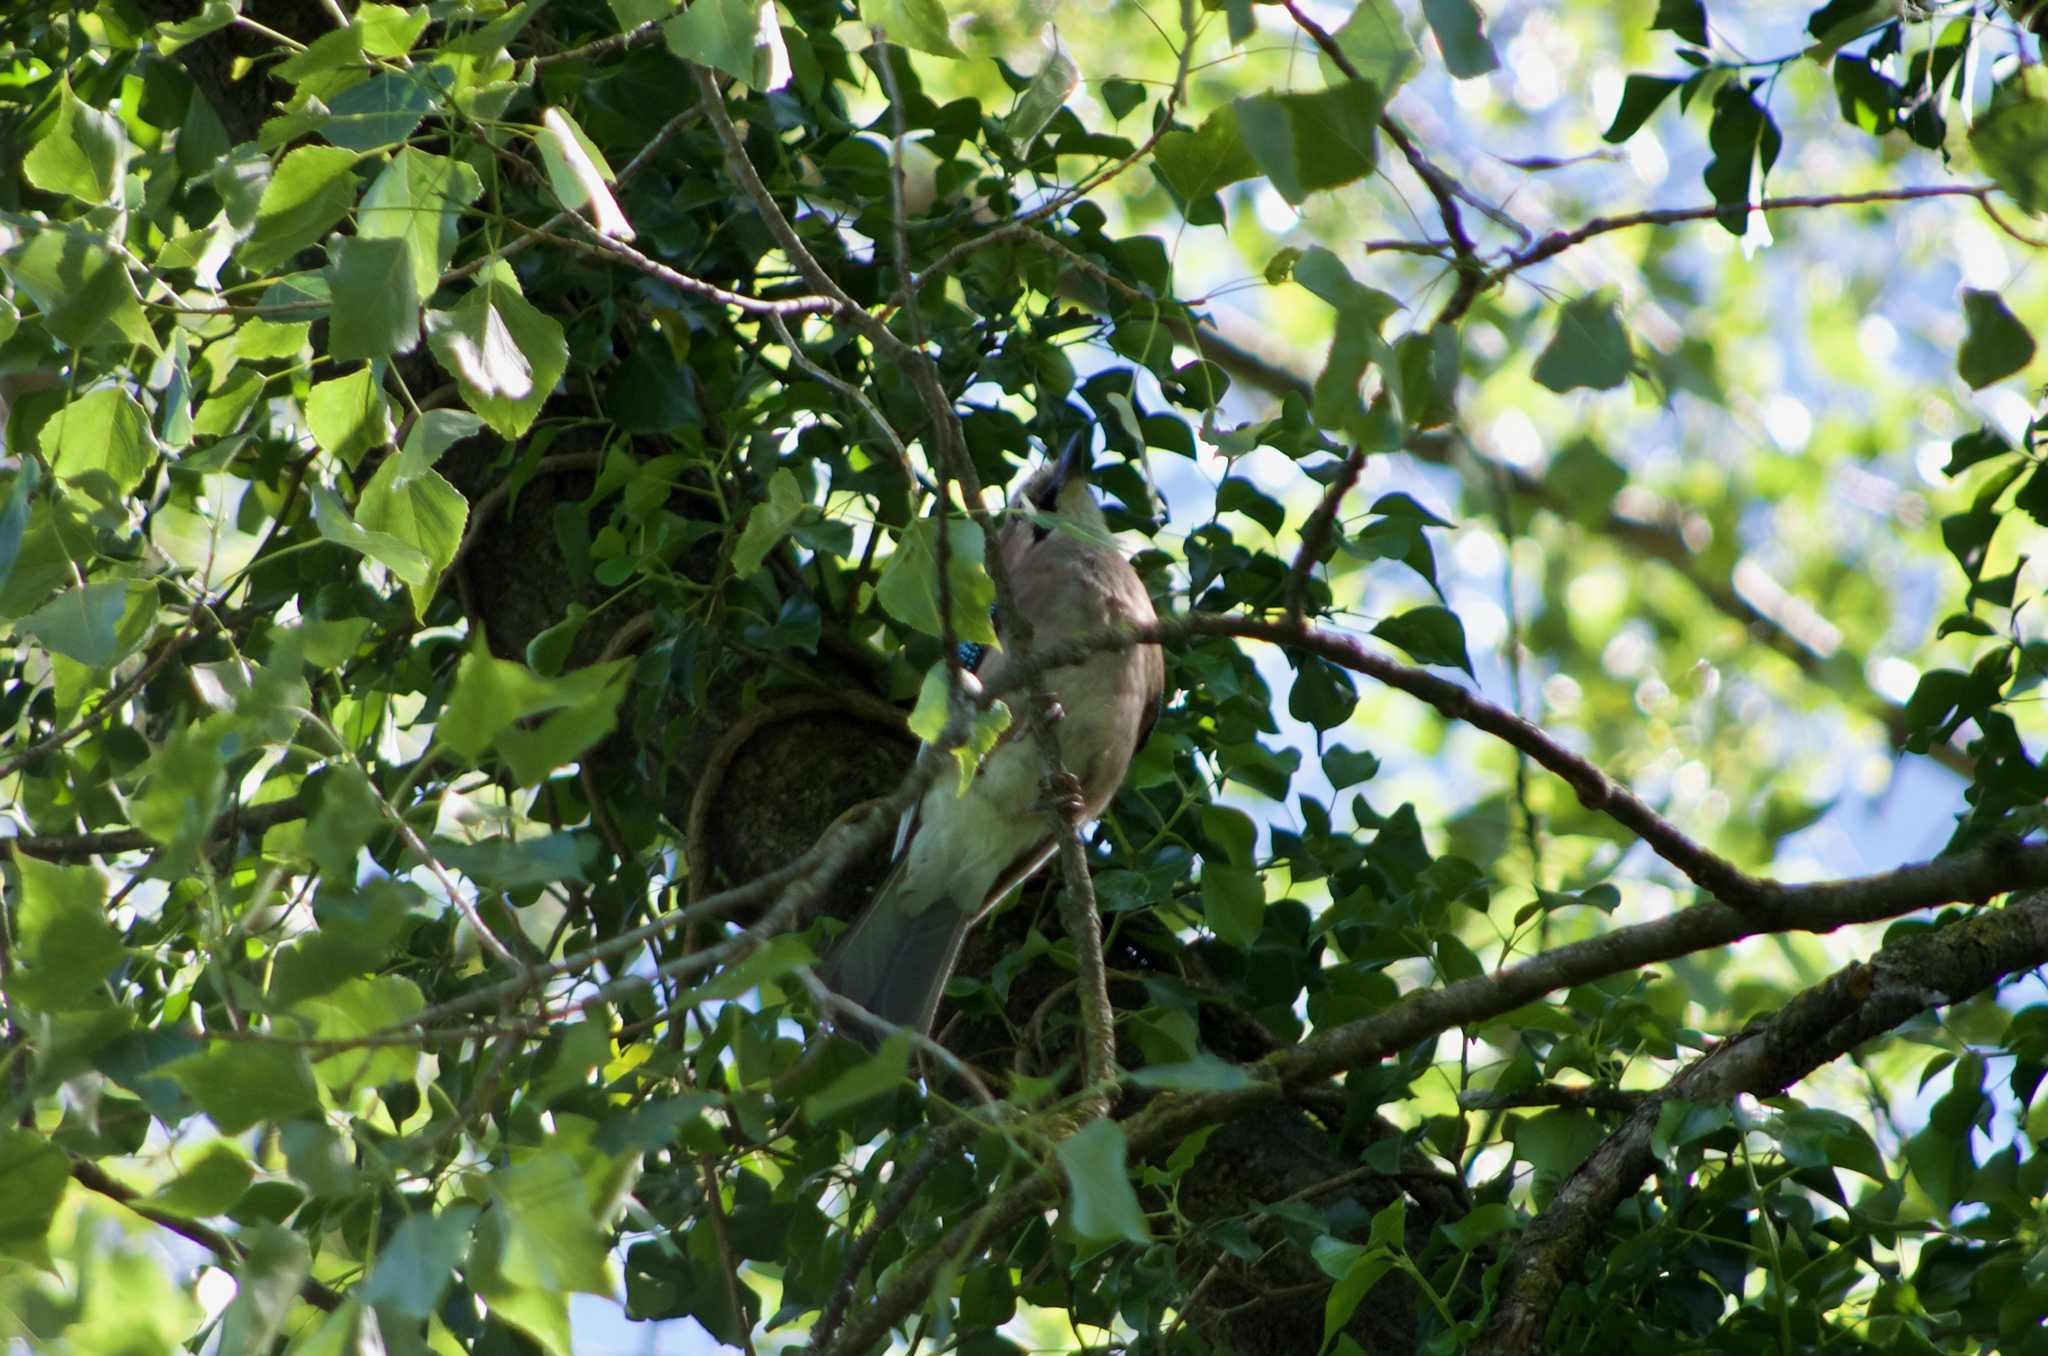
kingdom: Animalia
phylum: Chordata
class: Aves
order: Passeriformes
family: Corvidae
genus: Garrulus
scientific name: Garrulus glandarius
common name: Eurasian jay
